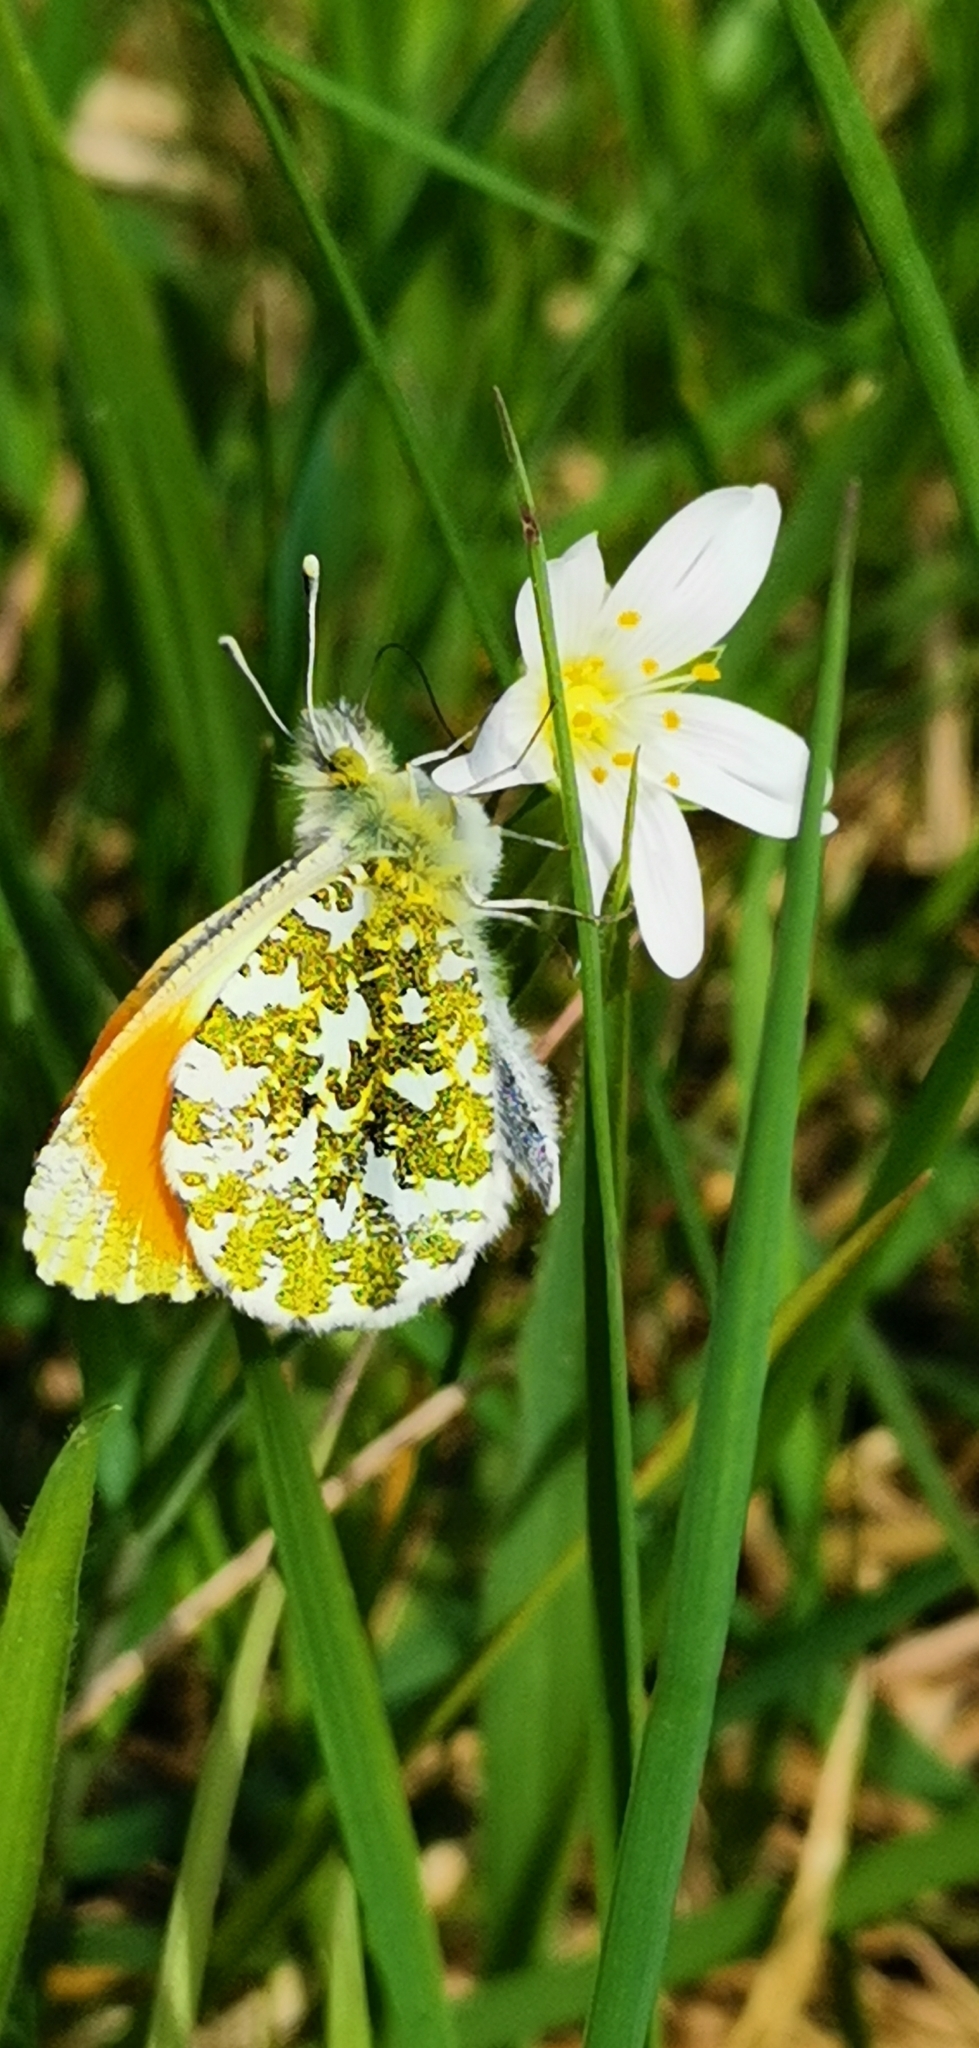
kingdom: Animalia
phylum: Arthropoda
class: Insecta
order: Lepidoptera
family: Pieridae
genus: Anthocharis
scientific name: Anthocharis cardamines
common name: Orange-tip
